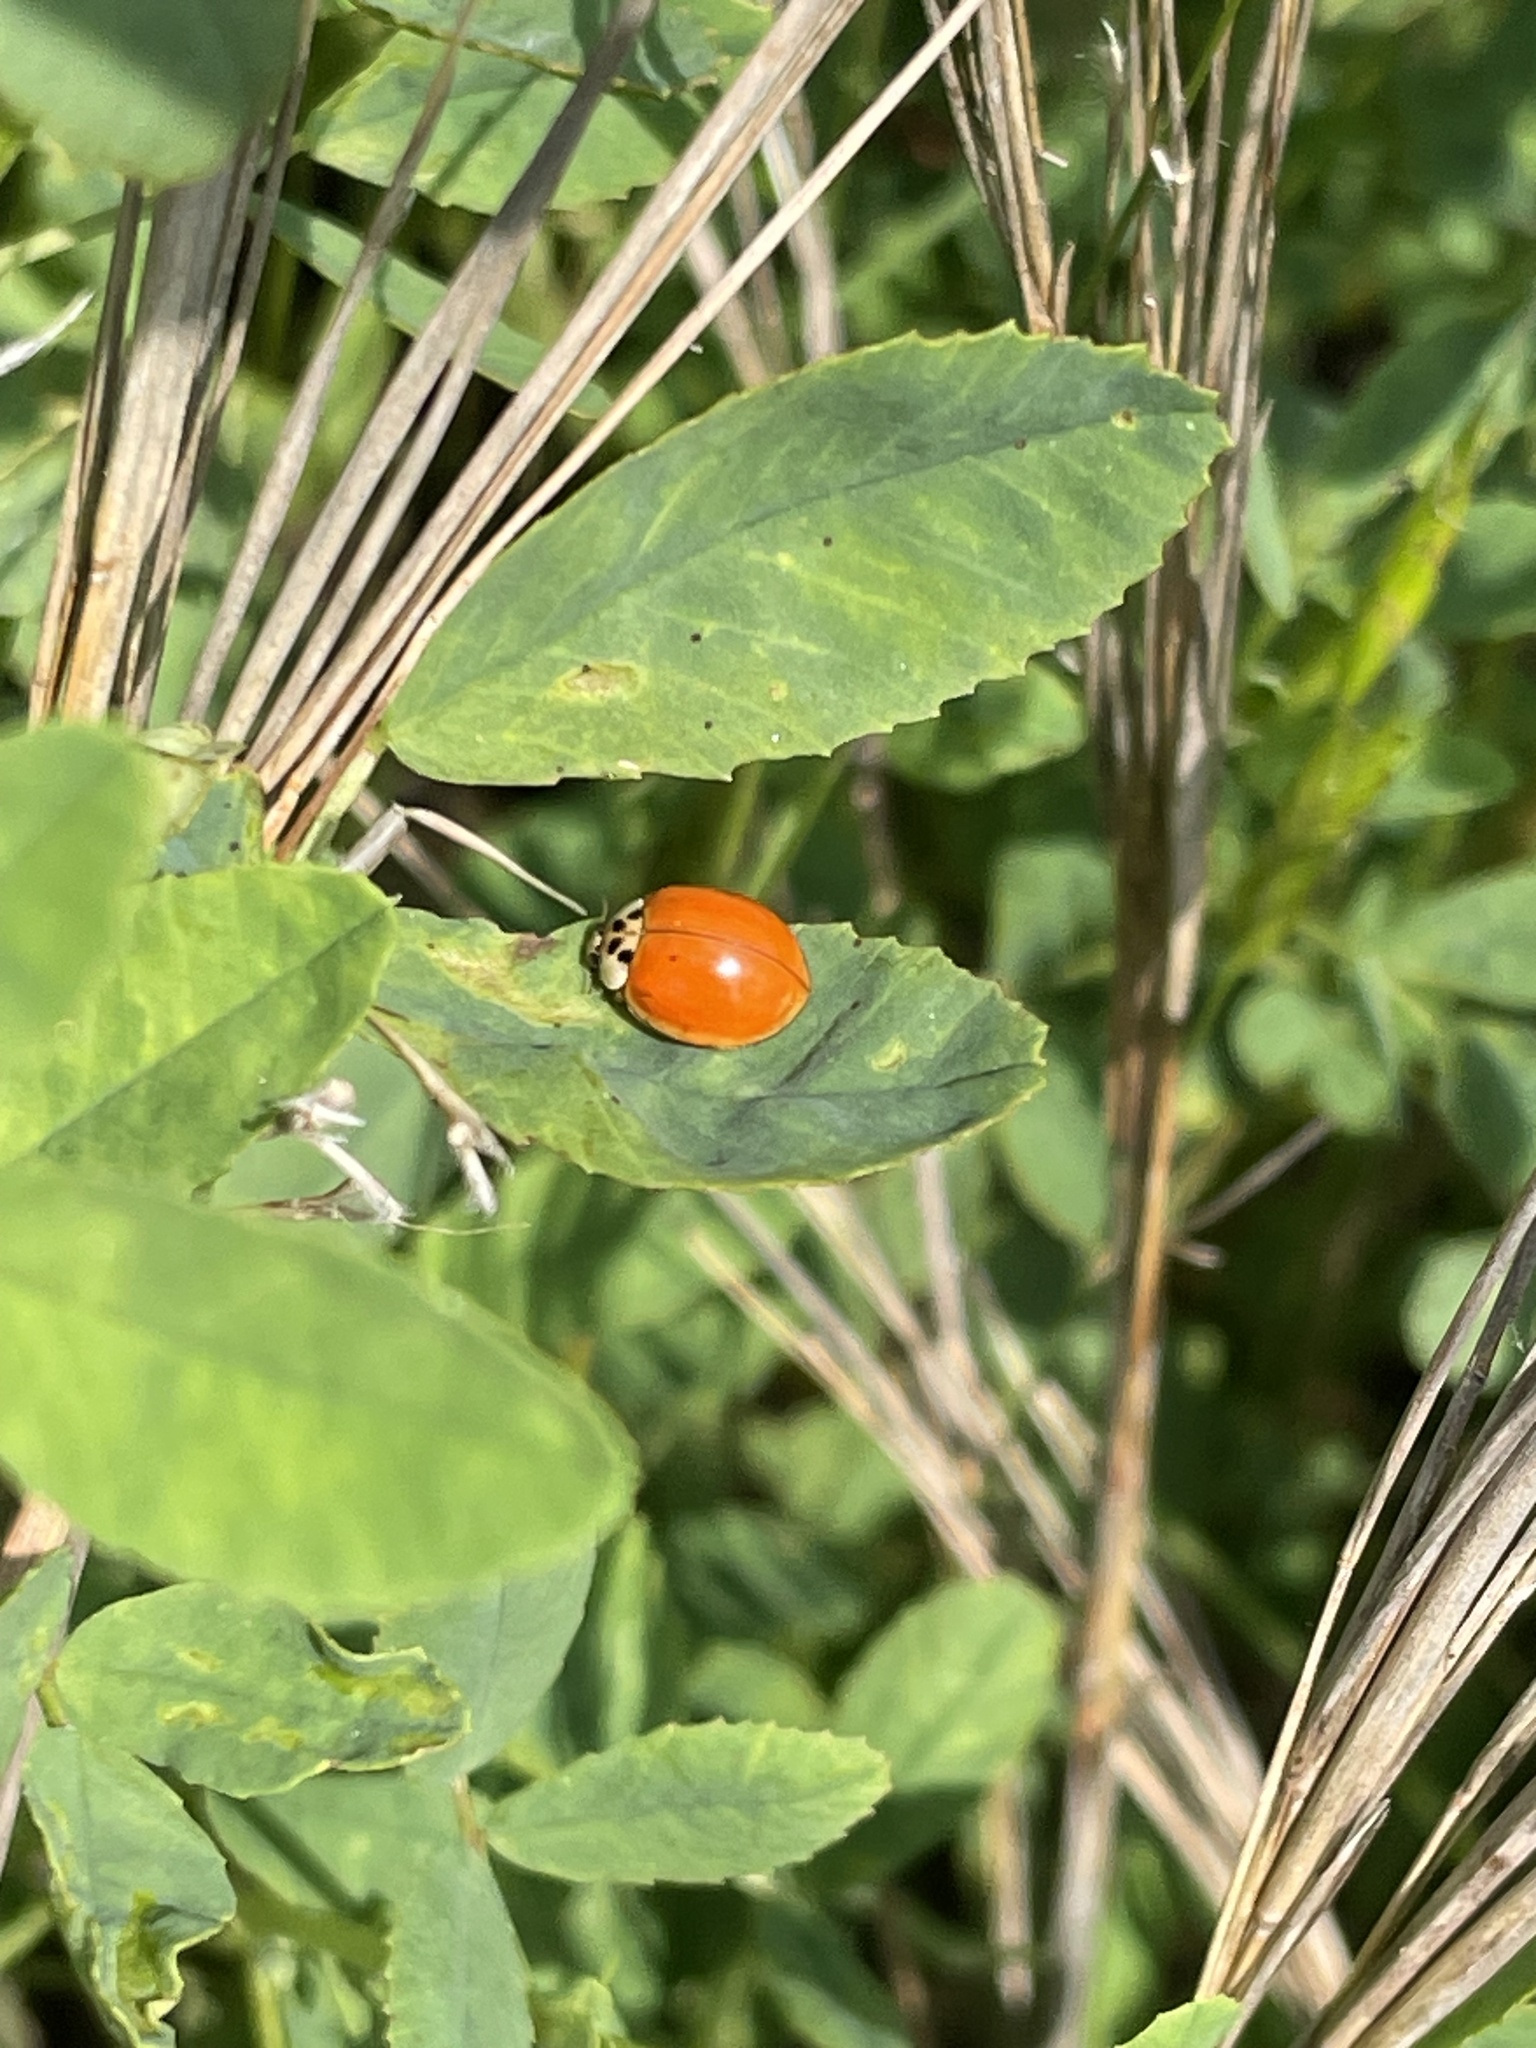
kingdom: Animalia
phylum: Arthropoda
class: Insecta
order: Coleoptera
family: Coccinellidae
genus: Harmonia
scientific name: Harmonia axyridis
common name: Harlequin ladybird
